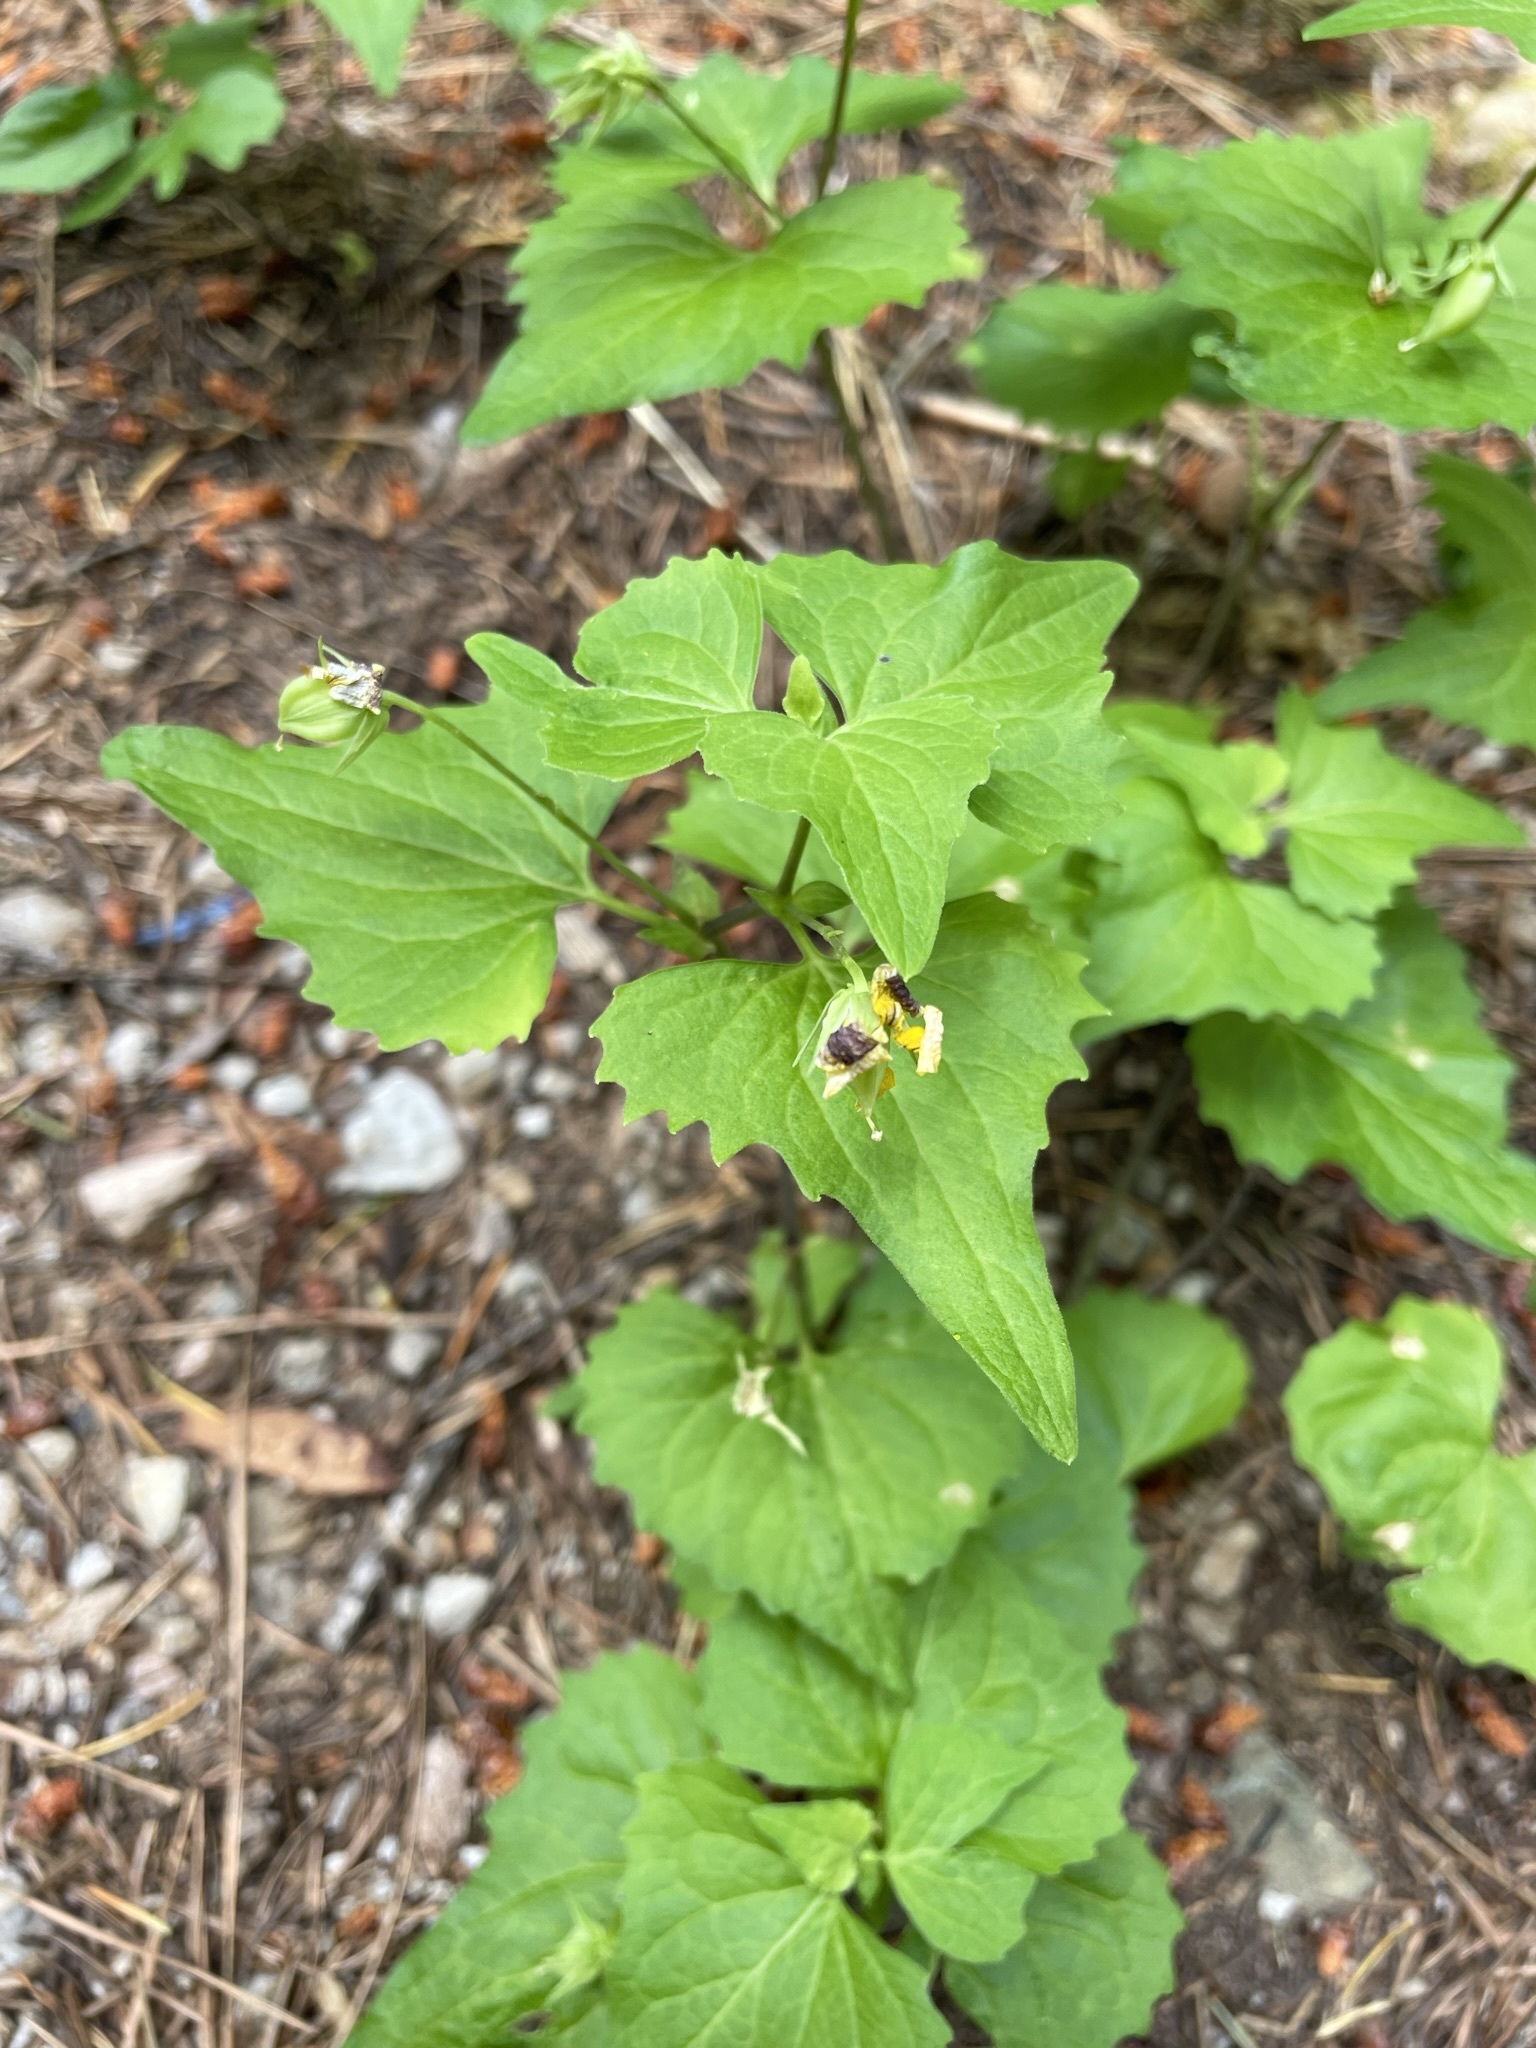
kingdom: Plantae
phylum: Tracheophyta
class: Magnoliopsida
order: Malpighiales
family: Violaceae
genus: Viola
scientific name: Viola lobata
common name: Pine violet
